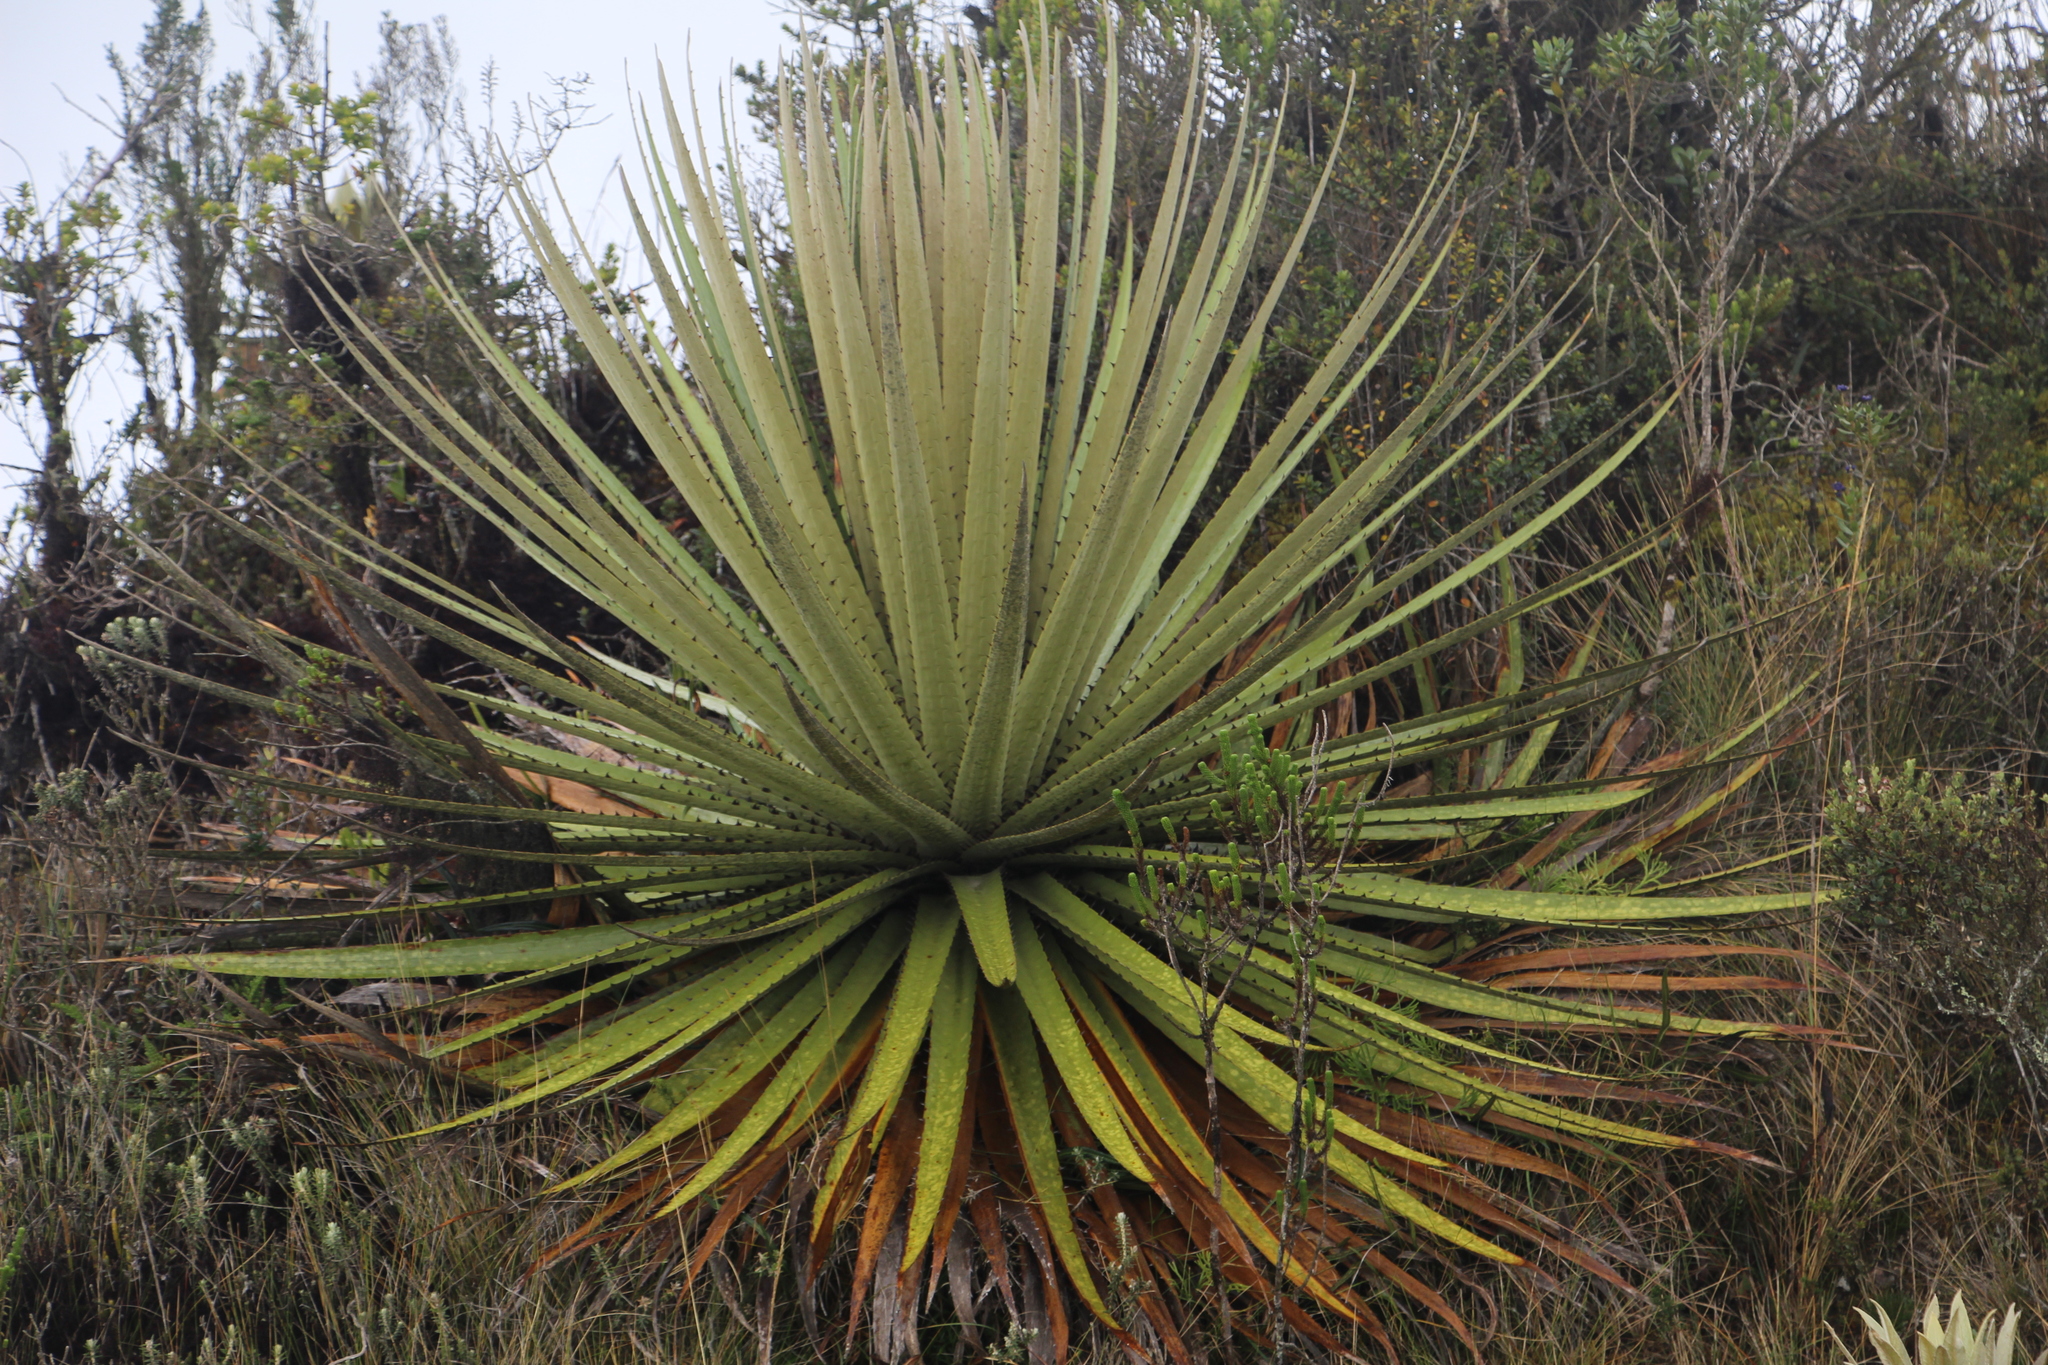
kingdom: Plantae
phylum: Tracheophyta
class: Liliopsida
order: Poales
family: Bromeliaceae
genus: Puya
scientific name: Puya goudotiana
